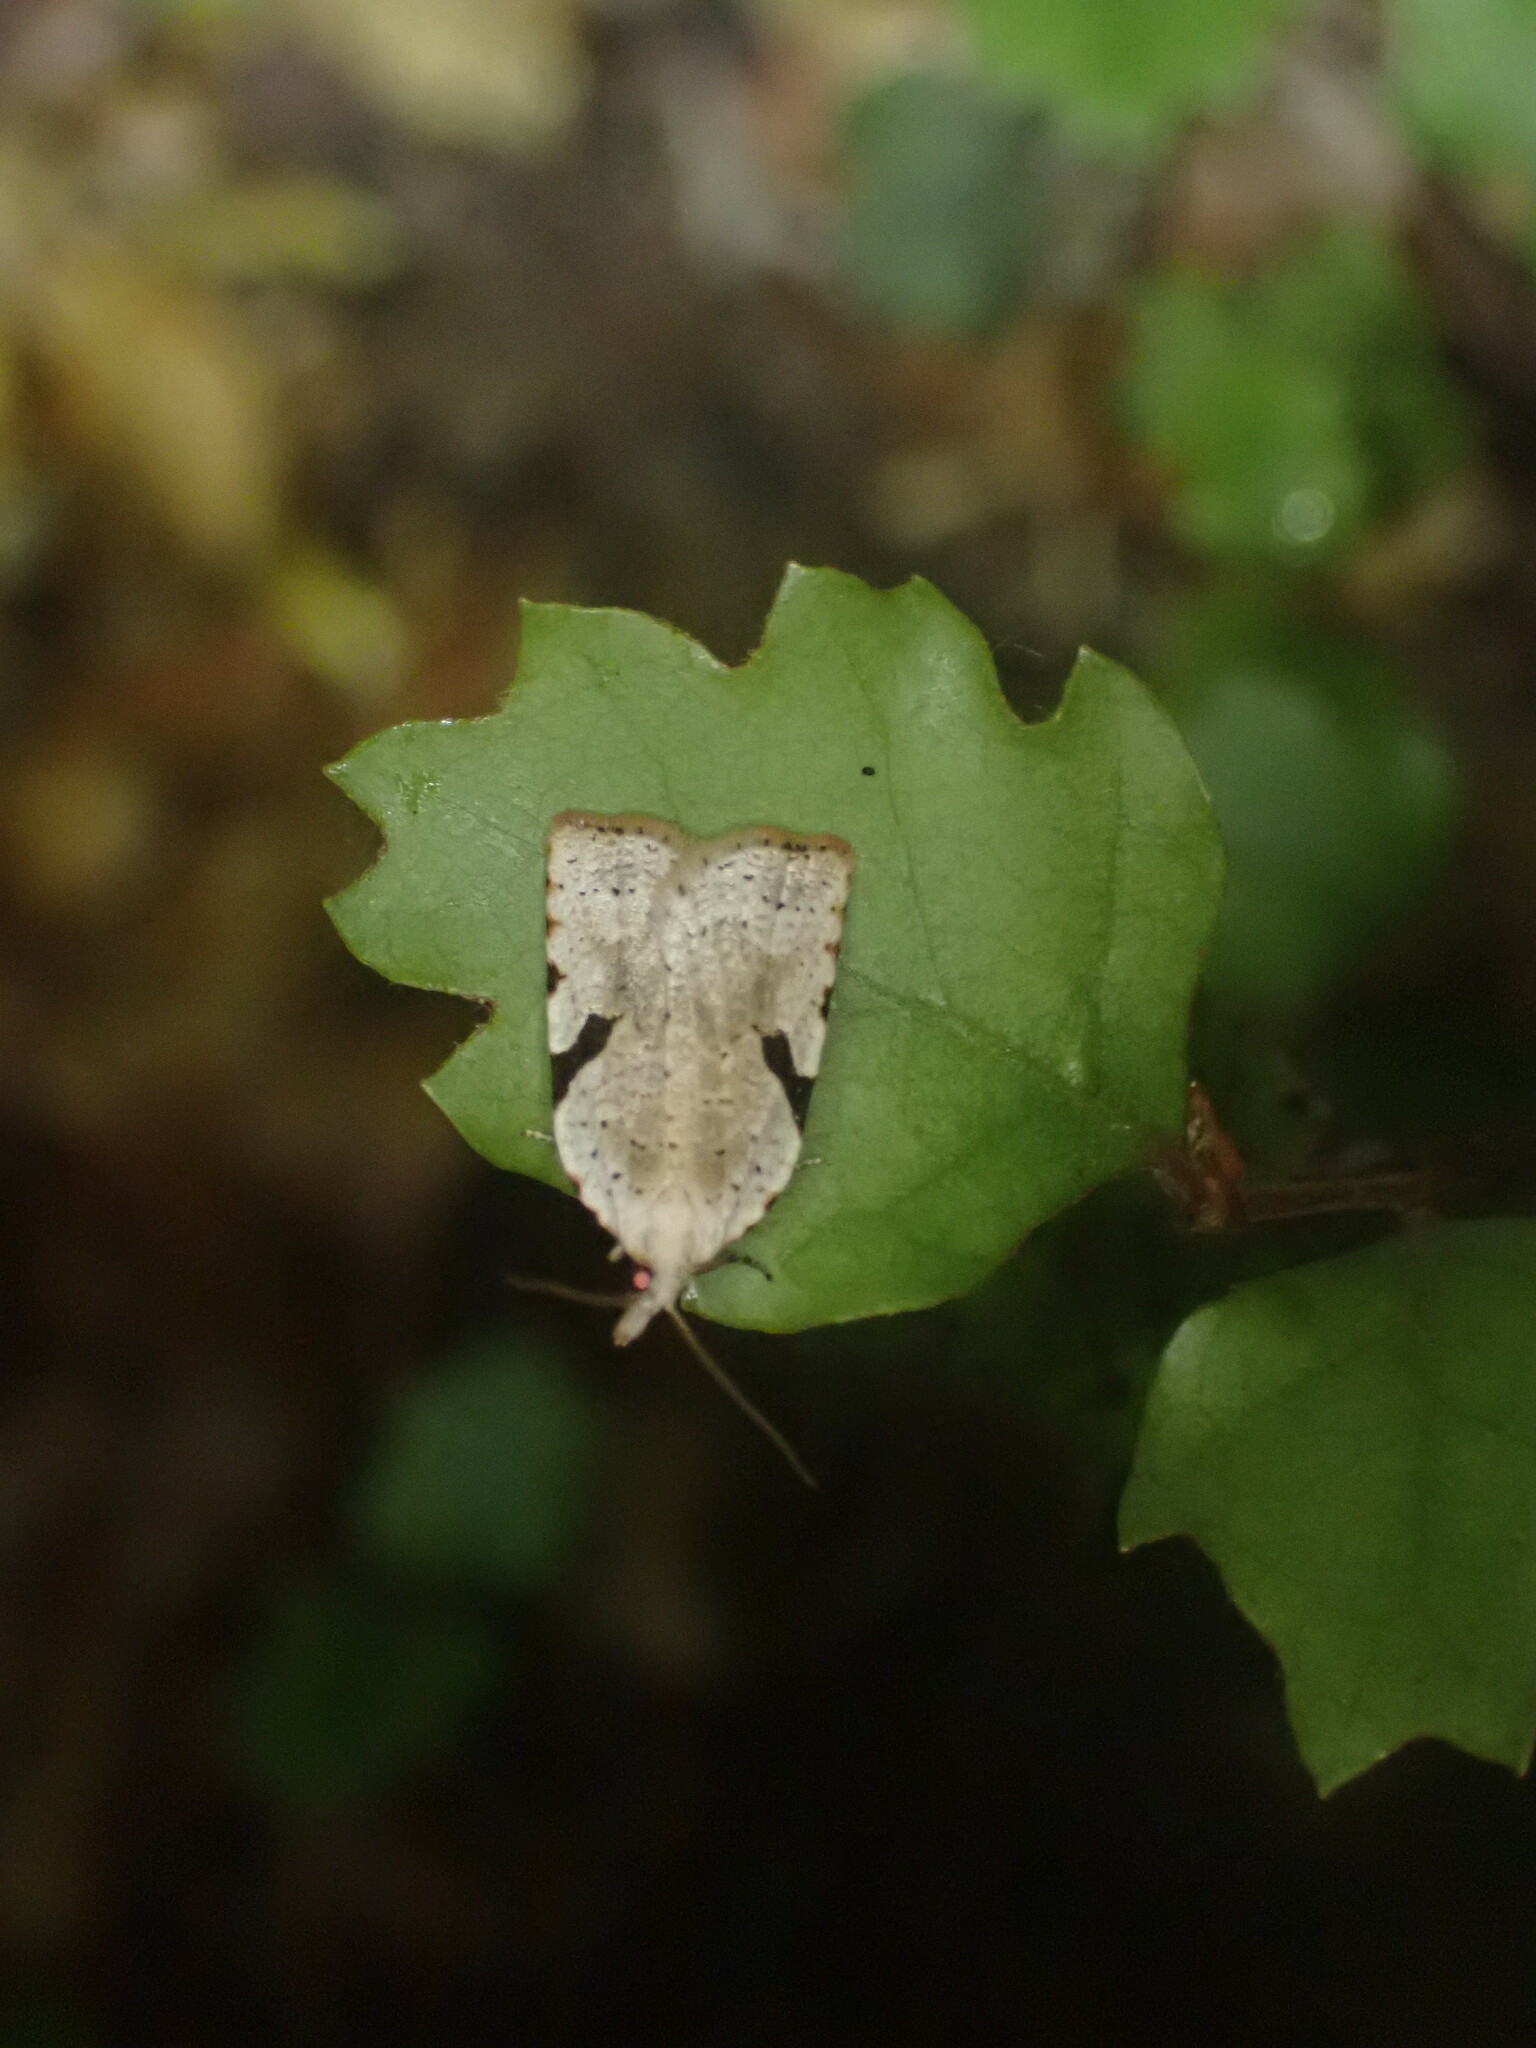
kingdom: Animalia
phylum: Arthropoda
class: Insecta
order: Lepidoptera
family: Tortricidae
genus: Leucotenes
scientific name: Leucotenes coprosmae
